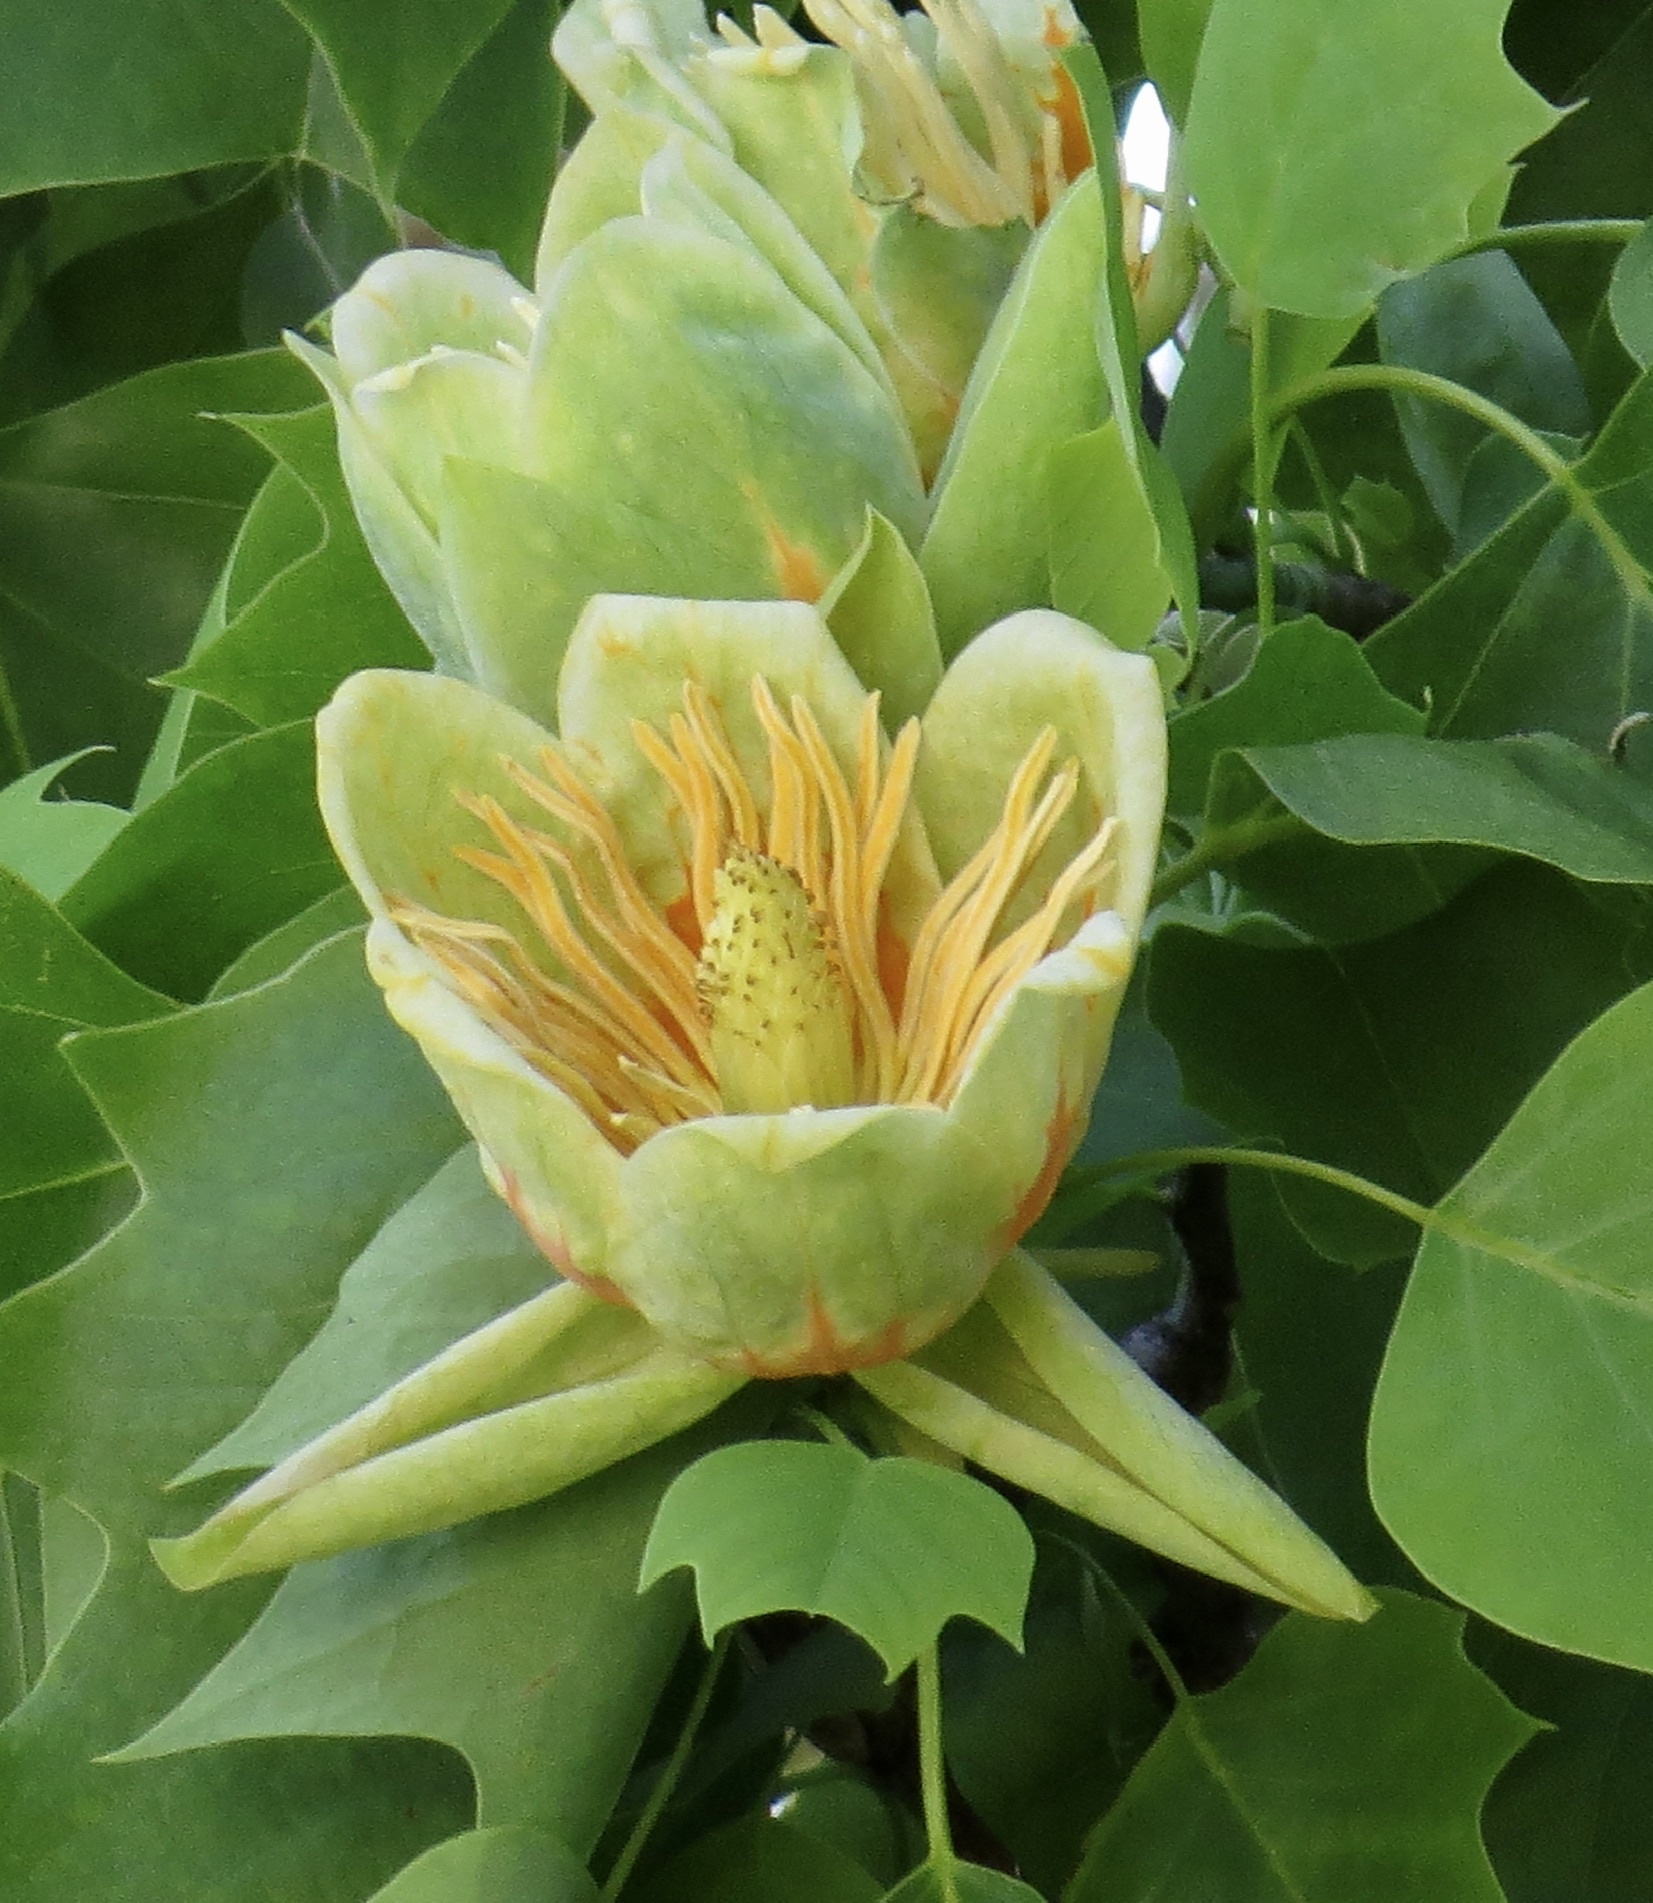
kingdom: Plantae
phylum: Tracheophyta
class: Magnoliopsida
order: Magnoliales
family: Magnoliaceae
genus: Liriodendron
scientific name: Liriodendron tulipifera
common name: Tulip tree
